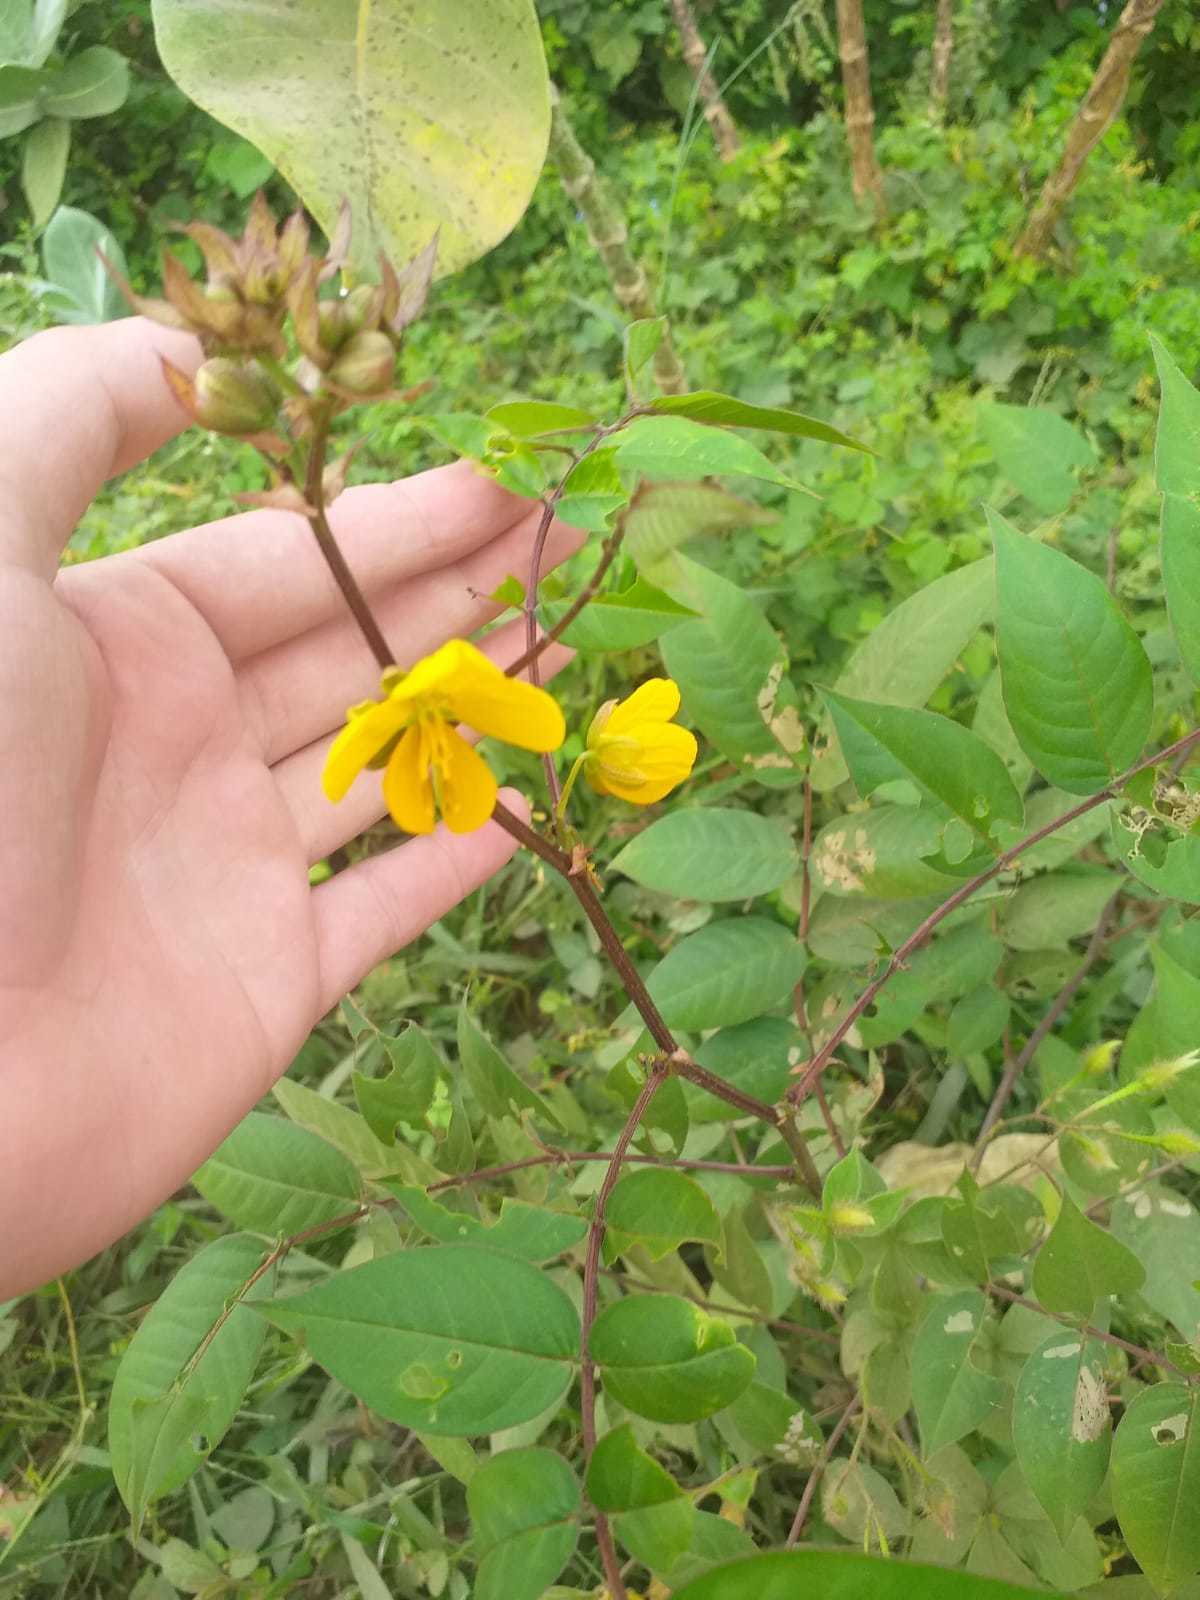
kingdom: Plantae
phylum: Tracheophyta
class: Magnoliopsida
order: Fabales
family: Fabaceae
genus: Senna
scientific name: Senna occidentalis
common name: Septicweed
